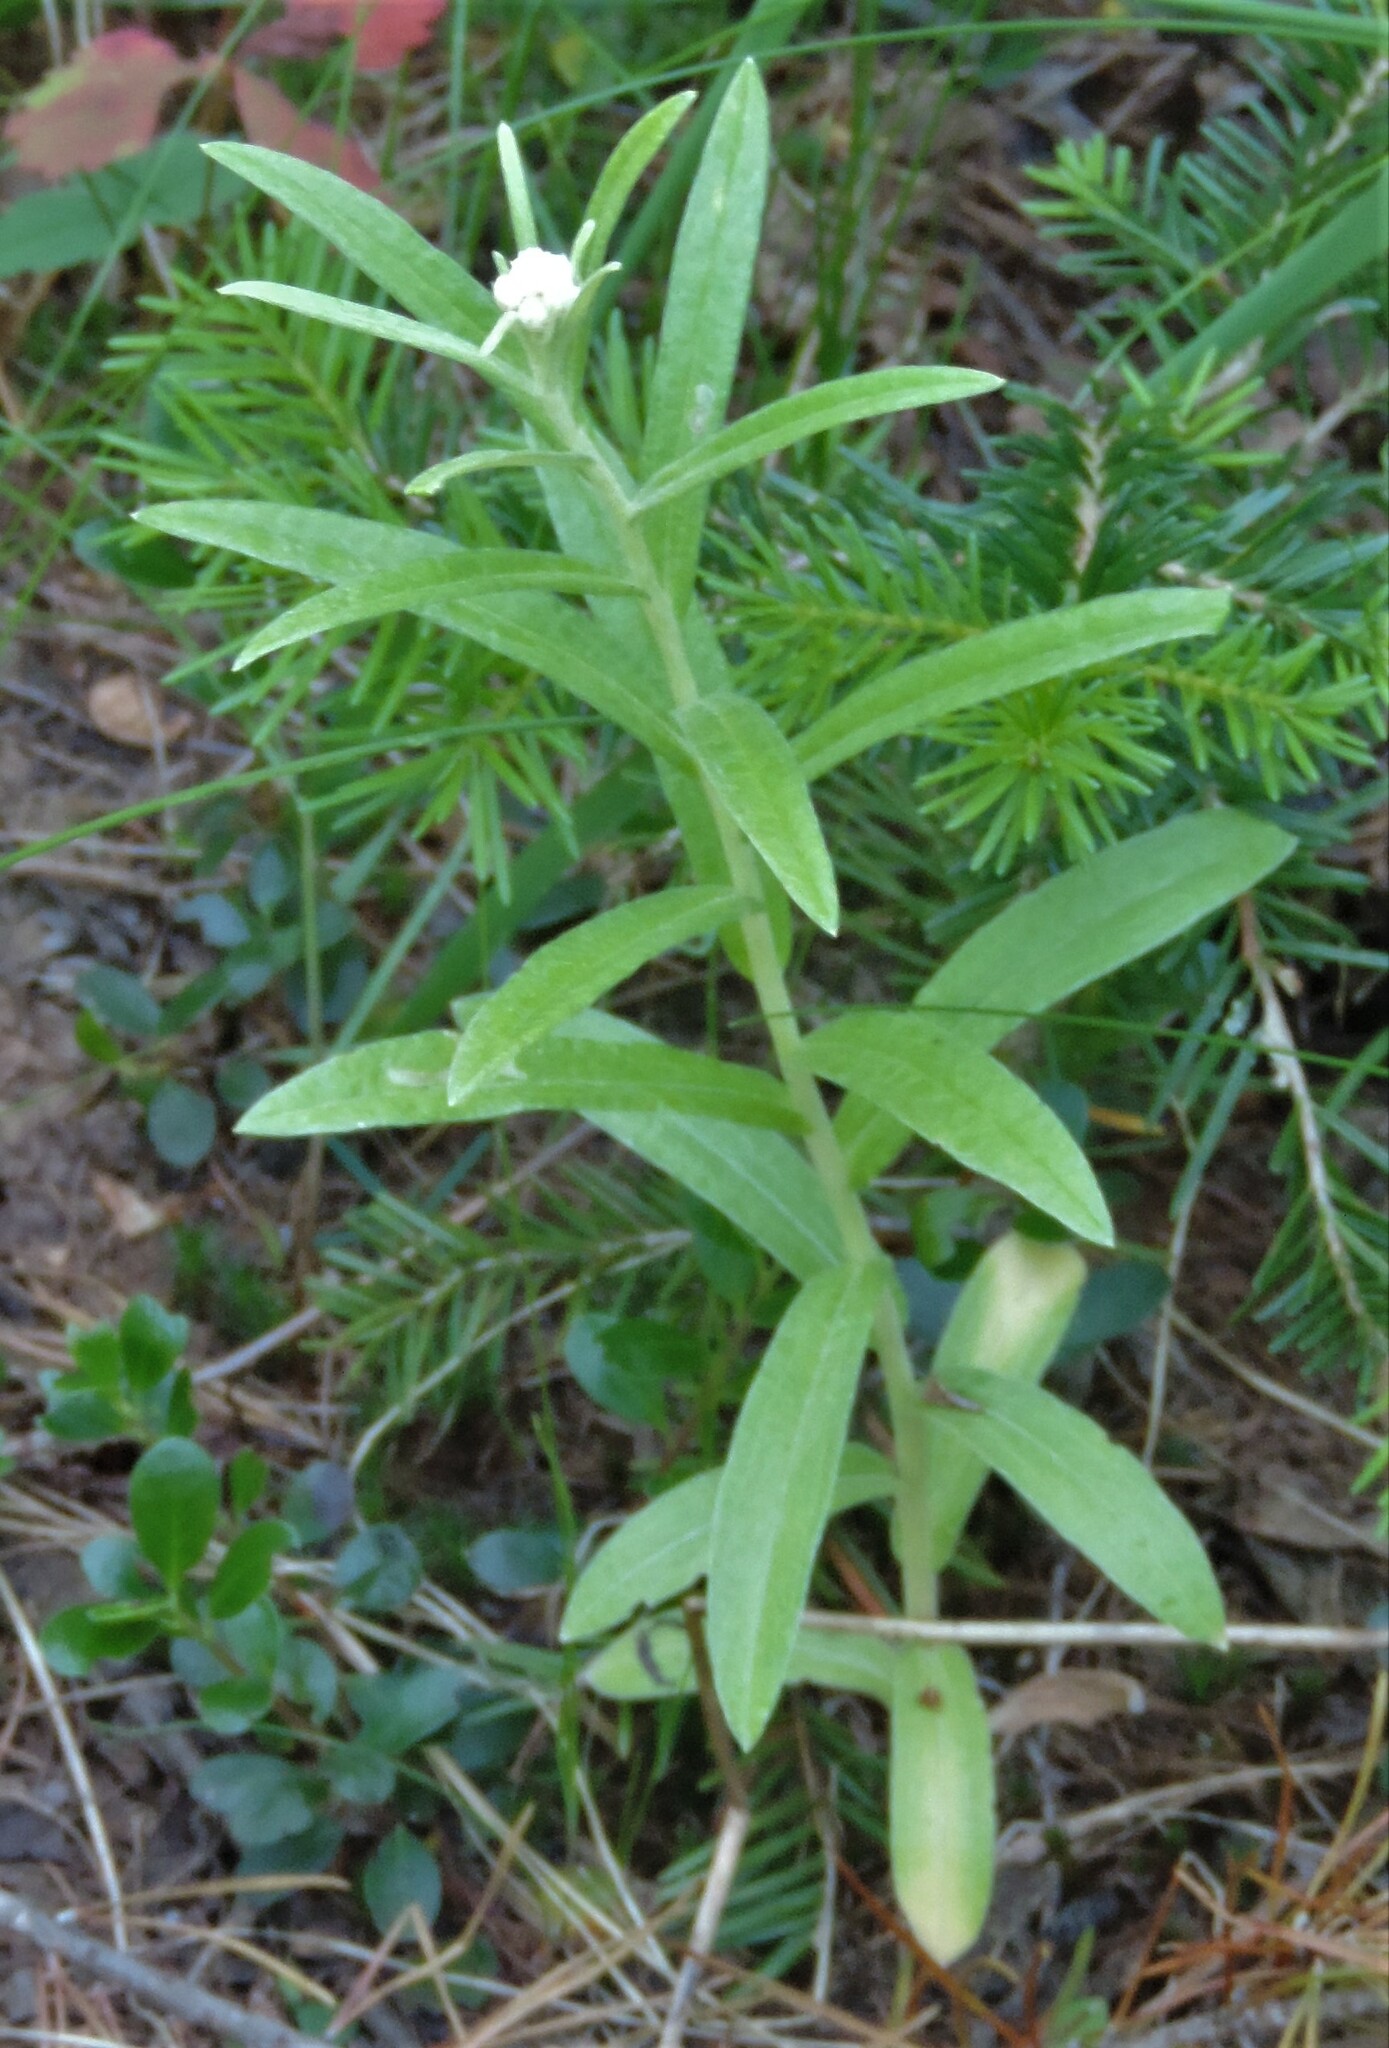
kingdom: Plantae
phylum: Tracheophyta
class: Magnoliopsida
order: Asterales
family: Asteraceae
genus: Anaphalis
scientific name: Anaphalis margaritacea
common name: Pearly everlasting
